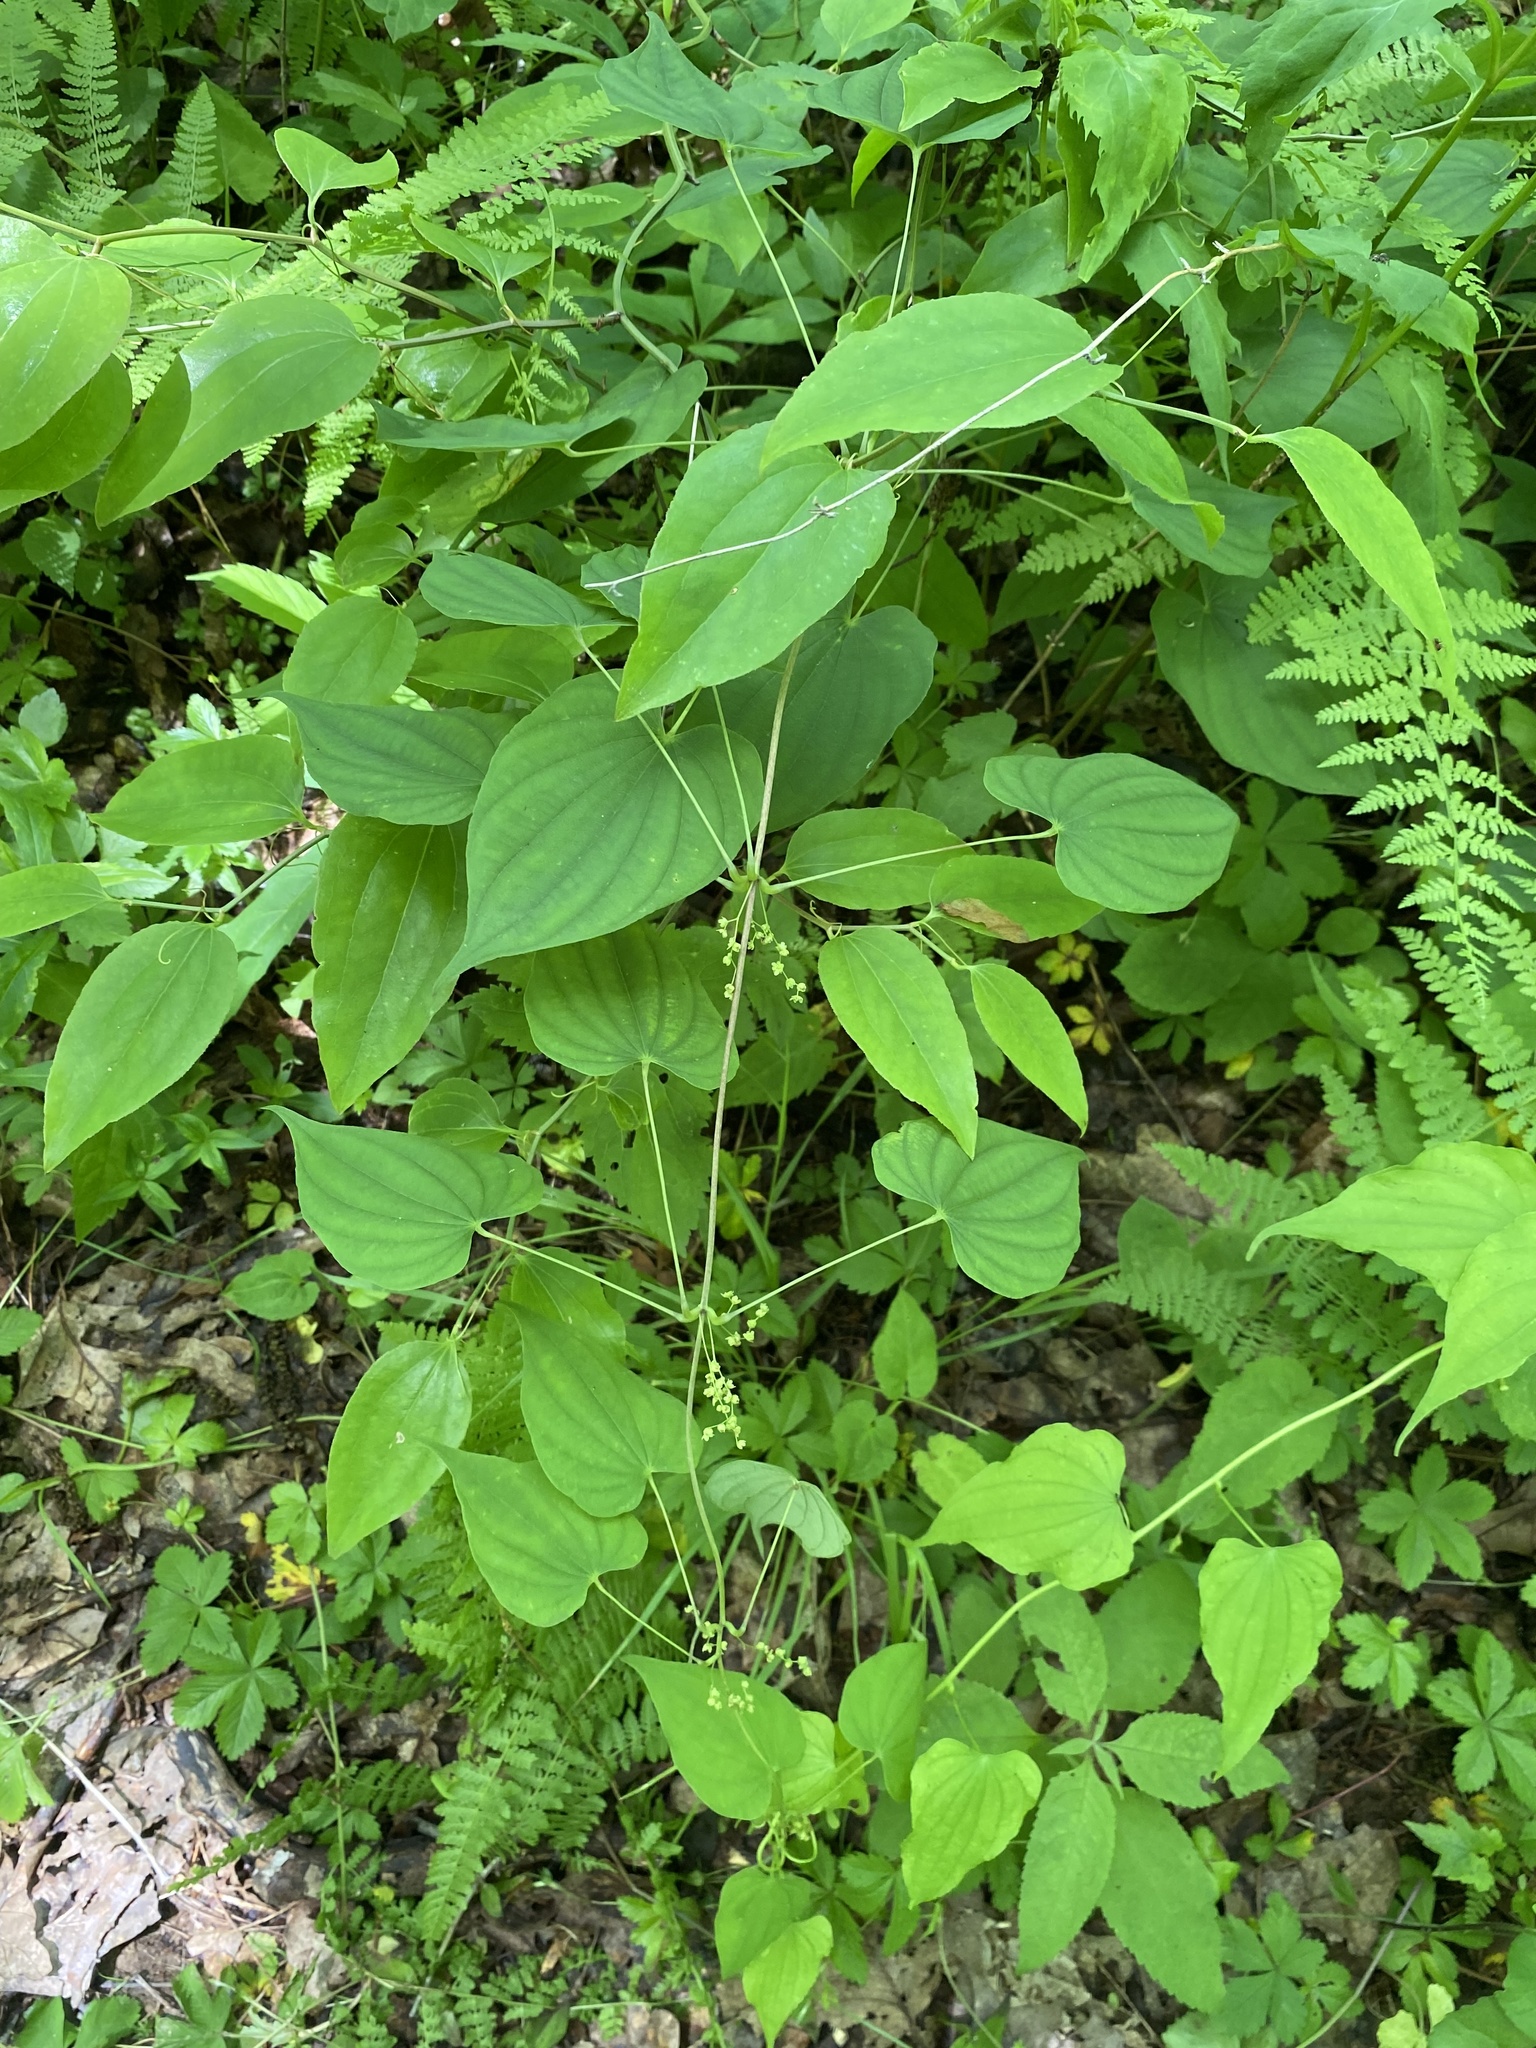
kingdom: Plantae
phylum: Tracheophyta
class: Liliopsida
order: Dioscoreales
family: Dioscoreaceae
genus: Dioscorea
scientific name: Dioscorea villosa
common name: Wild yam
